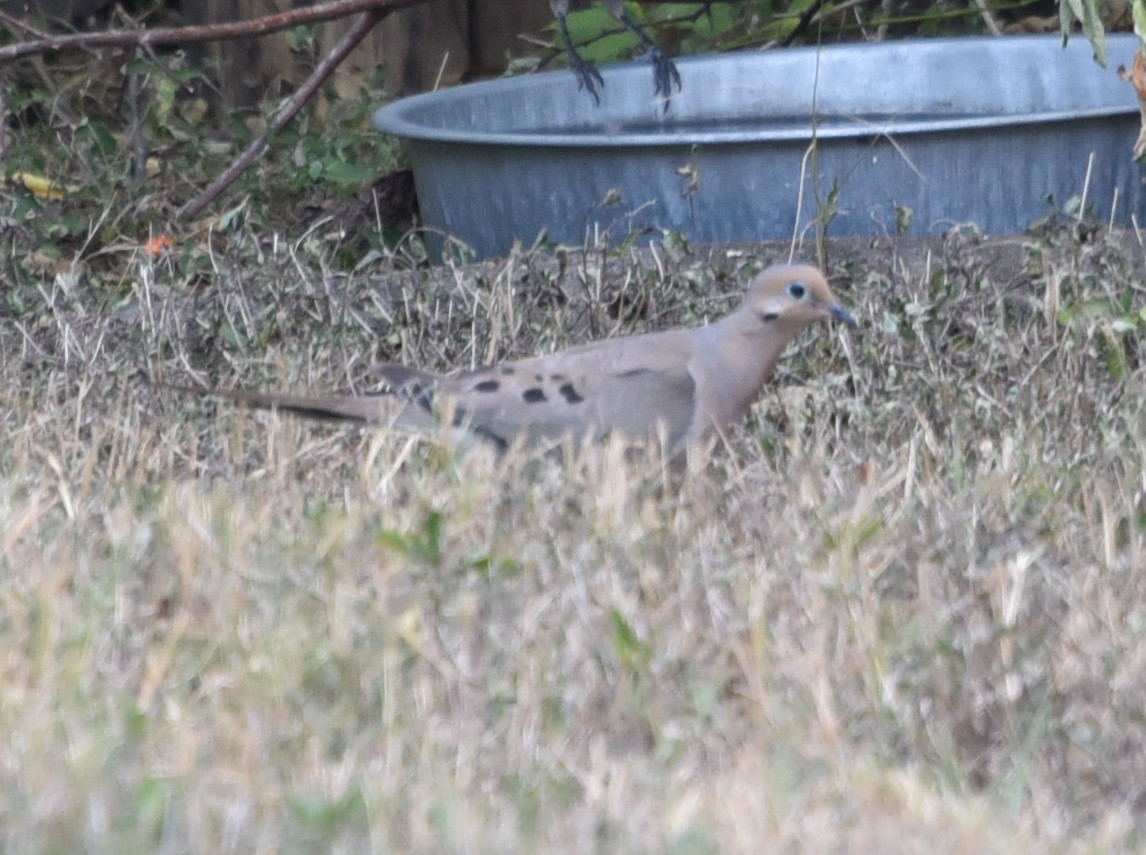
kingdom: Animalia
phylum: Chordata
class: Aves
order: Columbiformes
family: Columbidae
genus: Zenaida
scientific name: Zenaida macroura
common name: Mourning dove
